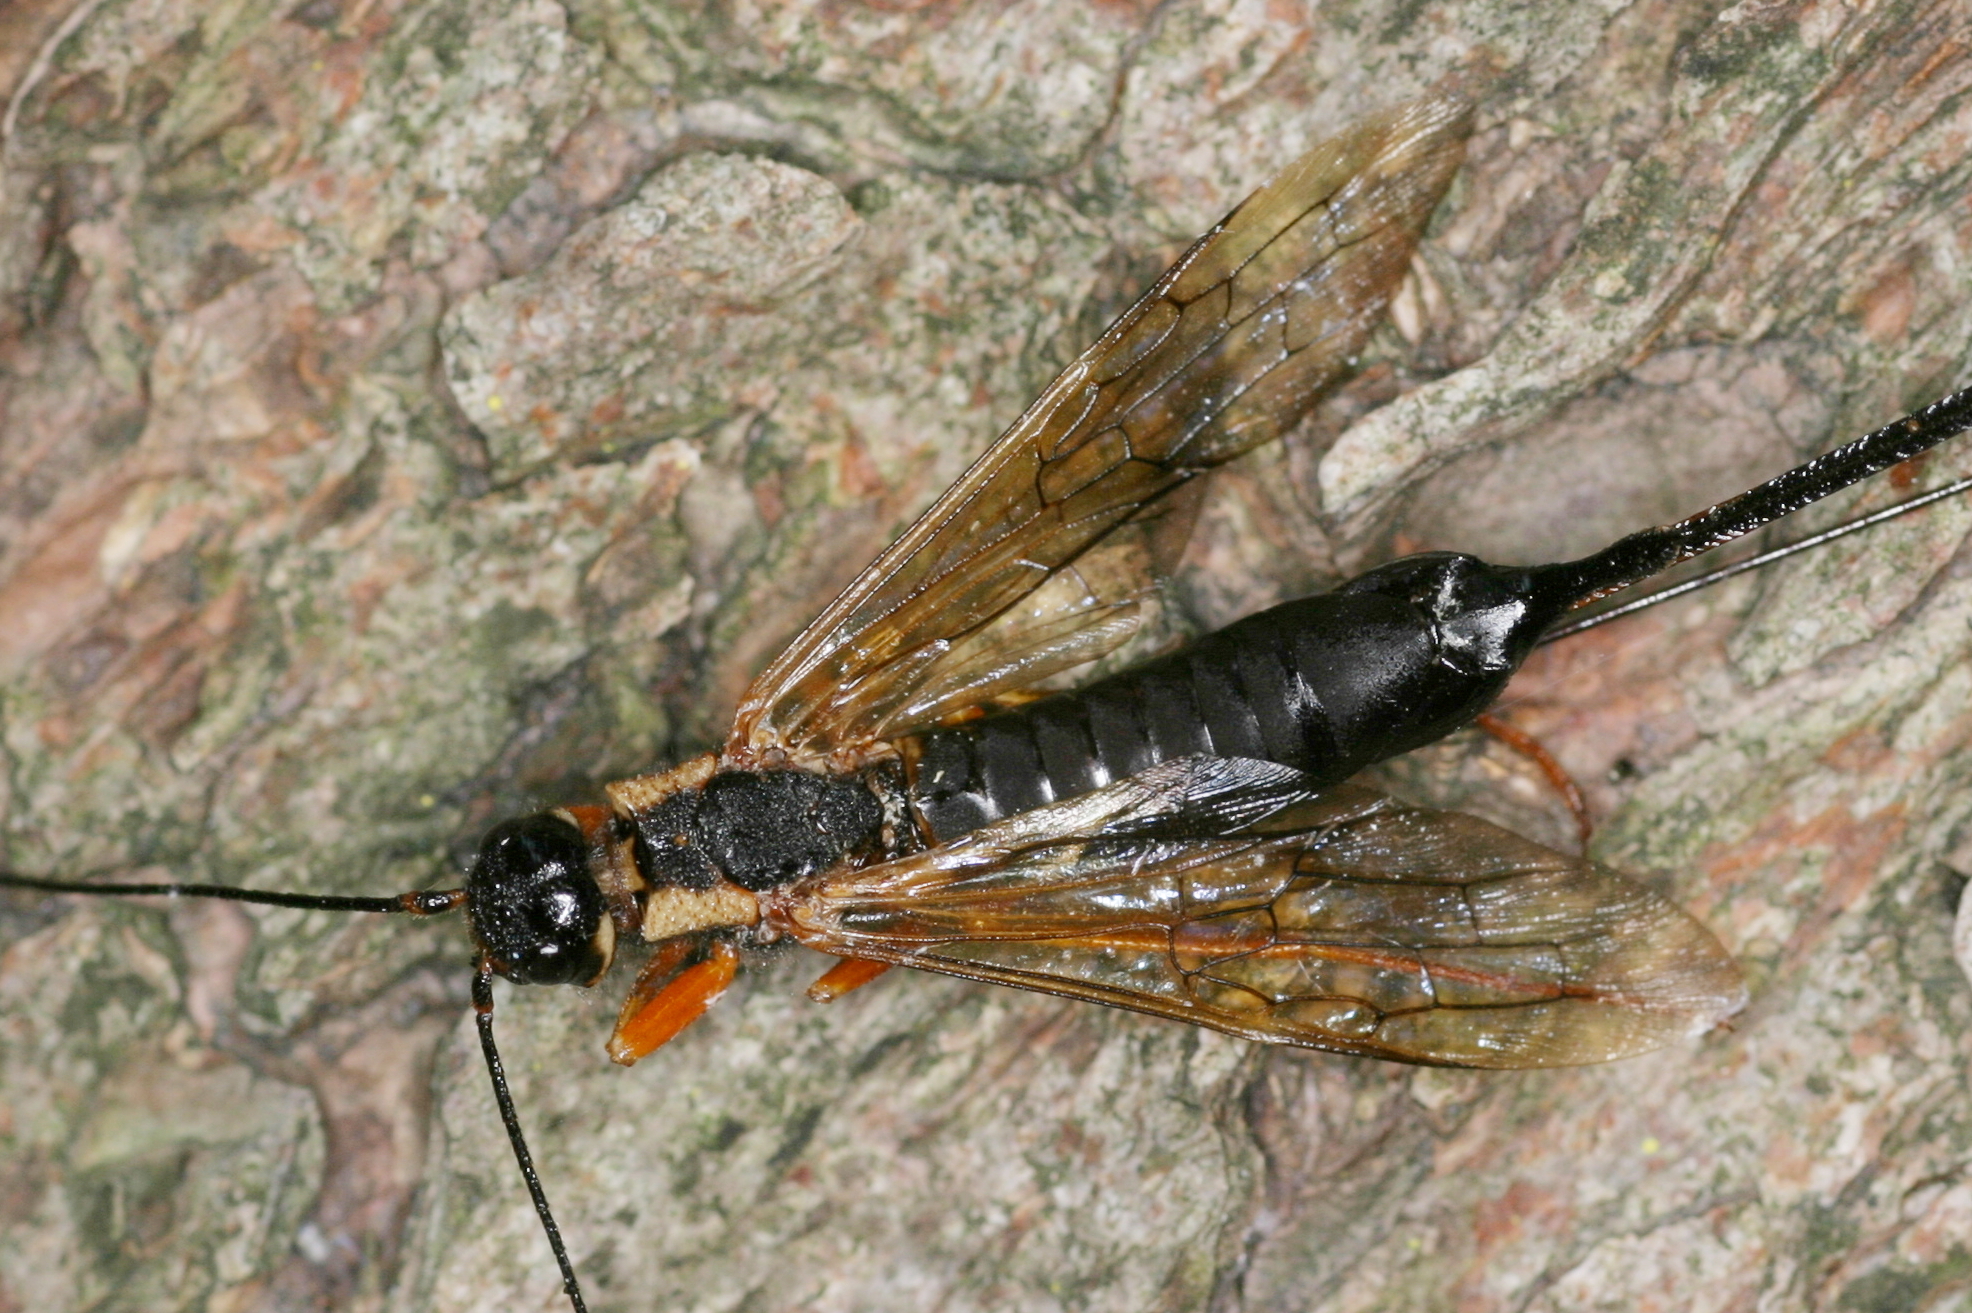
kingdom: Animalia
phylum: Arthropoda
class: Insecta
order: Hymenoptera
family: Siricidae
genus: Xeris
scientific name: Xeris spectrum
